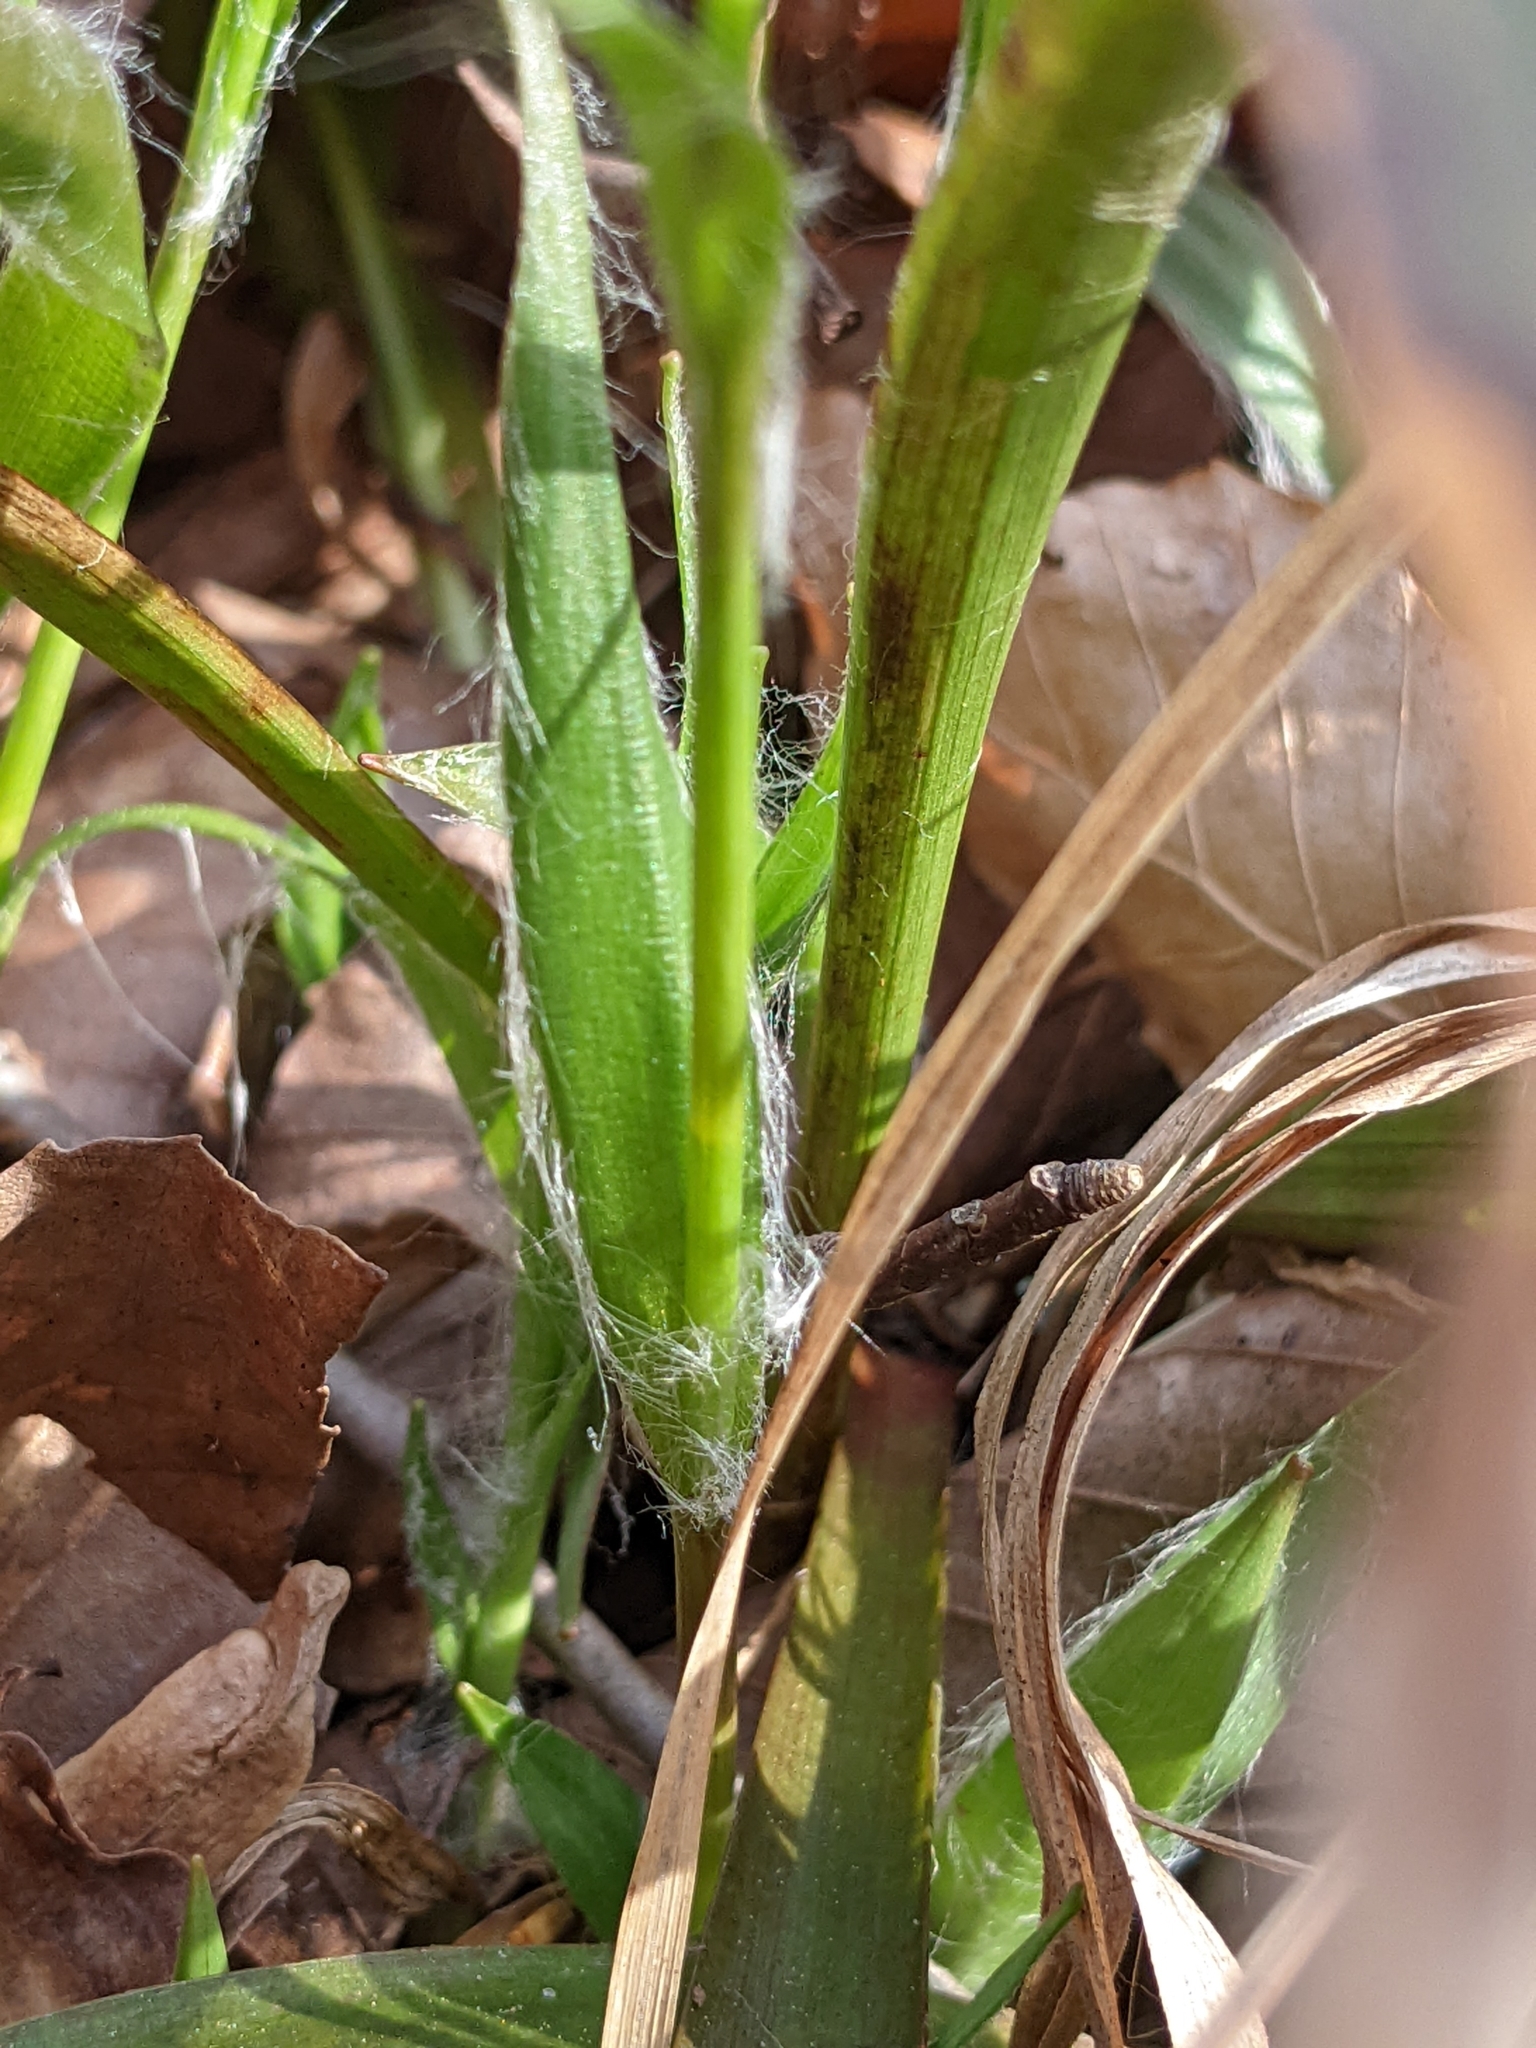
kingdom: Plantae
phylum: Tracheophyta
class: Liliopsida
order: Poales
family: Juncaceae
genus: Luzula
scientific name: Luzula acuminata
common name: Hairy woodrush
